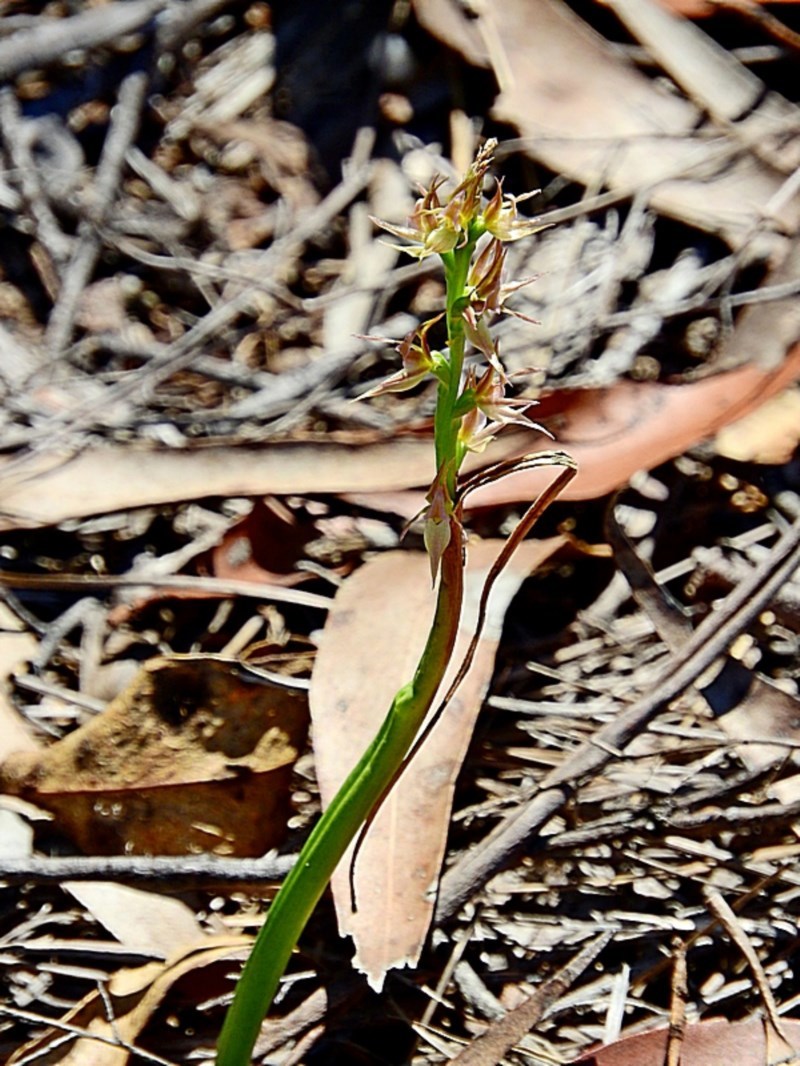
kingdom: Plantae
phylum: Tracheophyta
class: Liliopsida
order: Asparagales
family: Orchidaceae
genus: Prasophyllum
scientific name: Prasophyllum sylvestre
